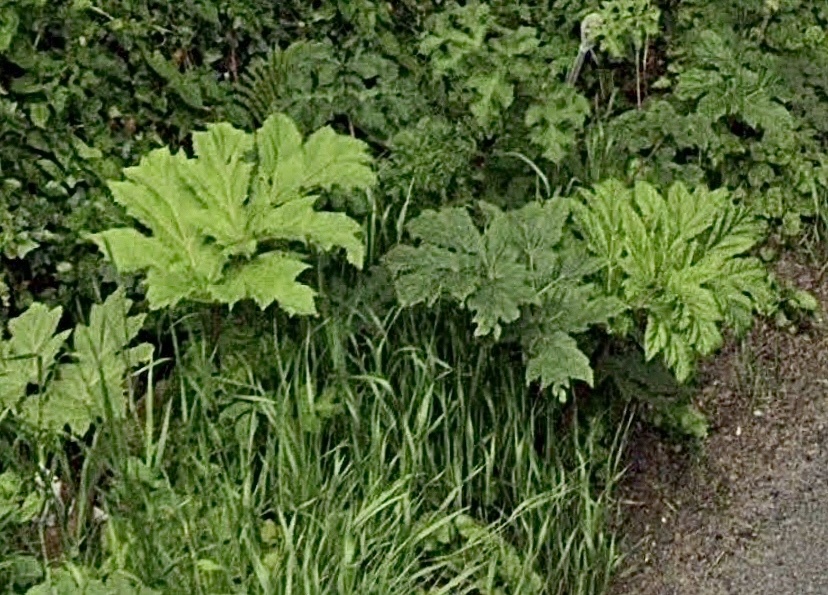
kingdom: Plantae
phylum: Tracheophyta
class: Magnoliopsida
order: Apiales
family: Apiaceae
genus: Heracleum
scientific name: Heracleum mantegazzianum
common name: Giant hogweed
